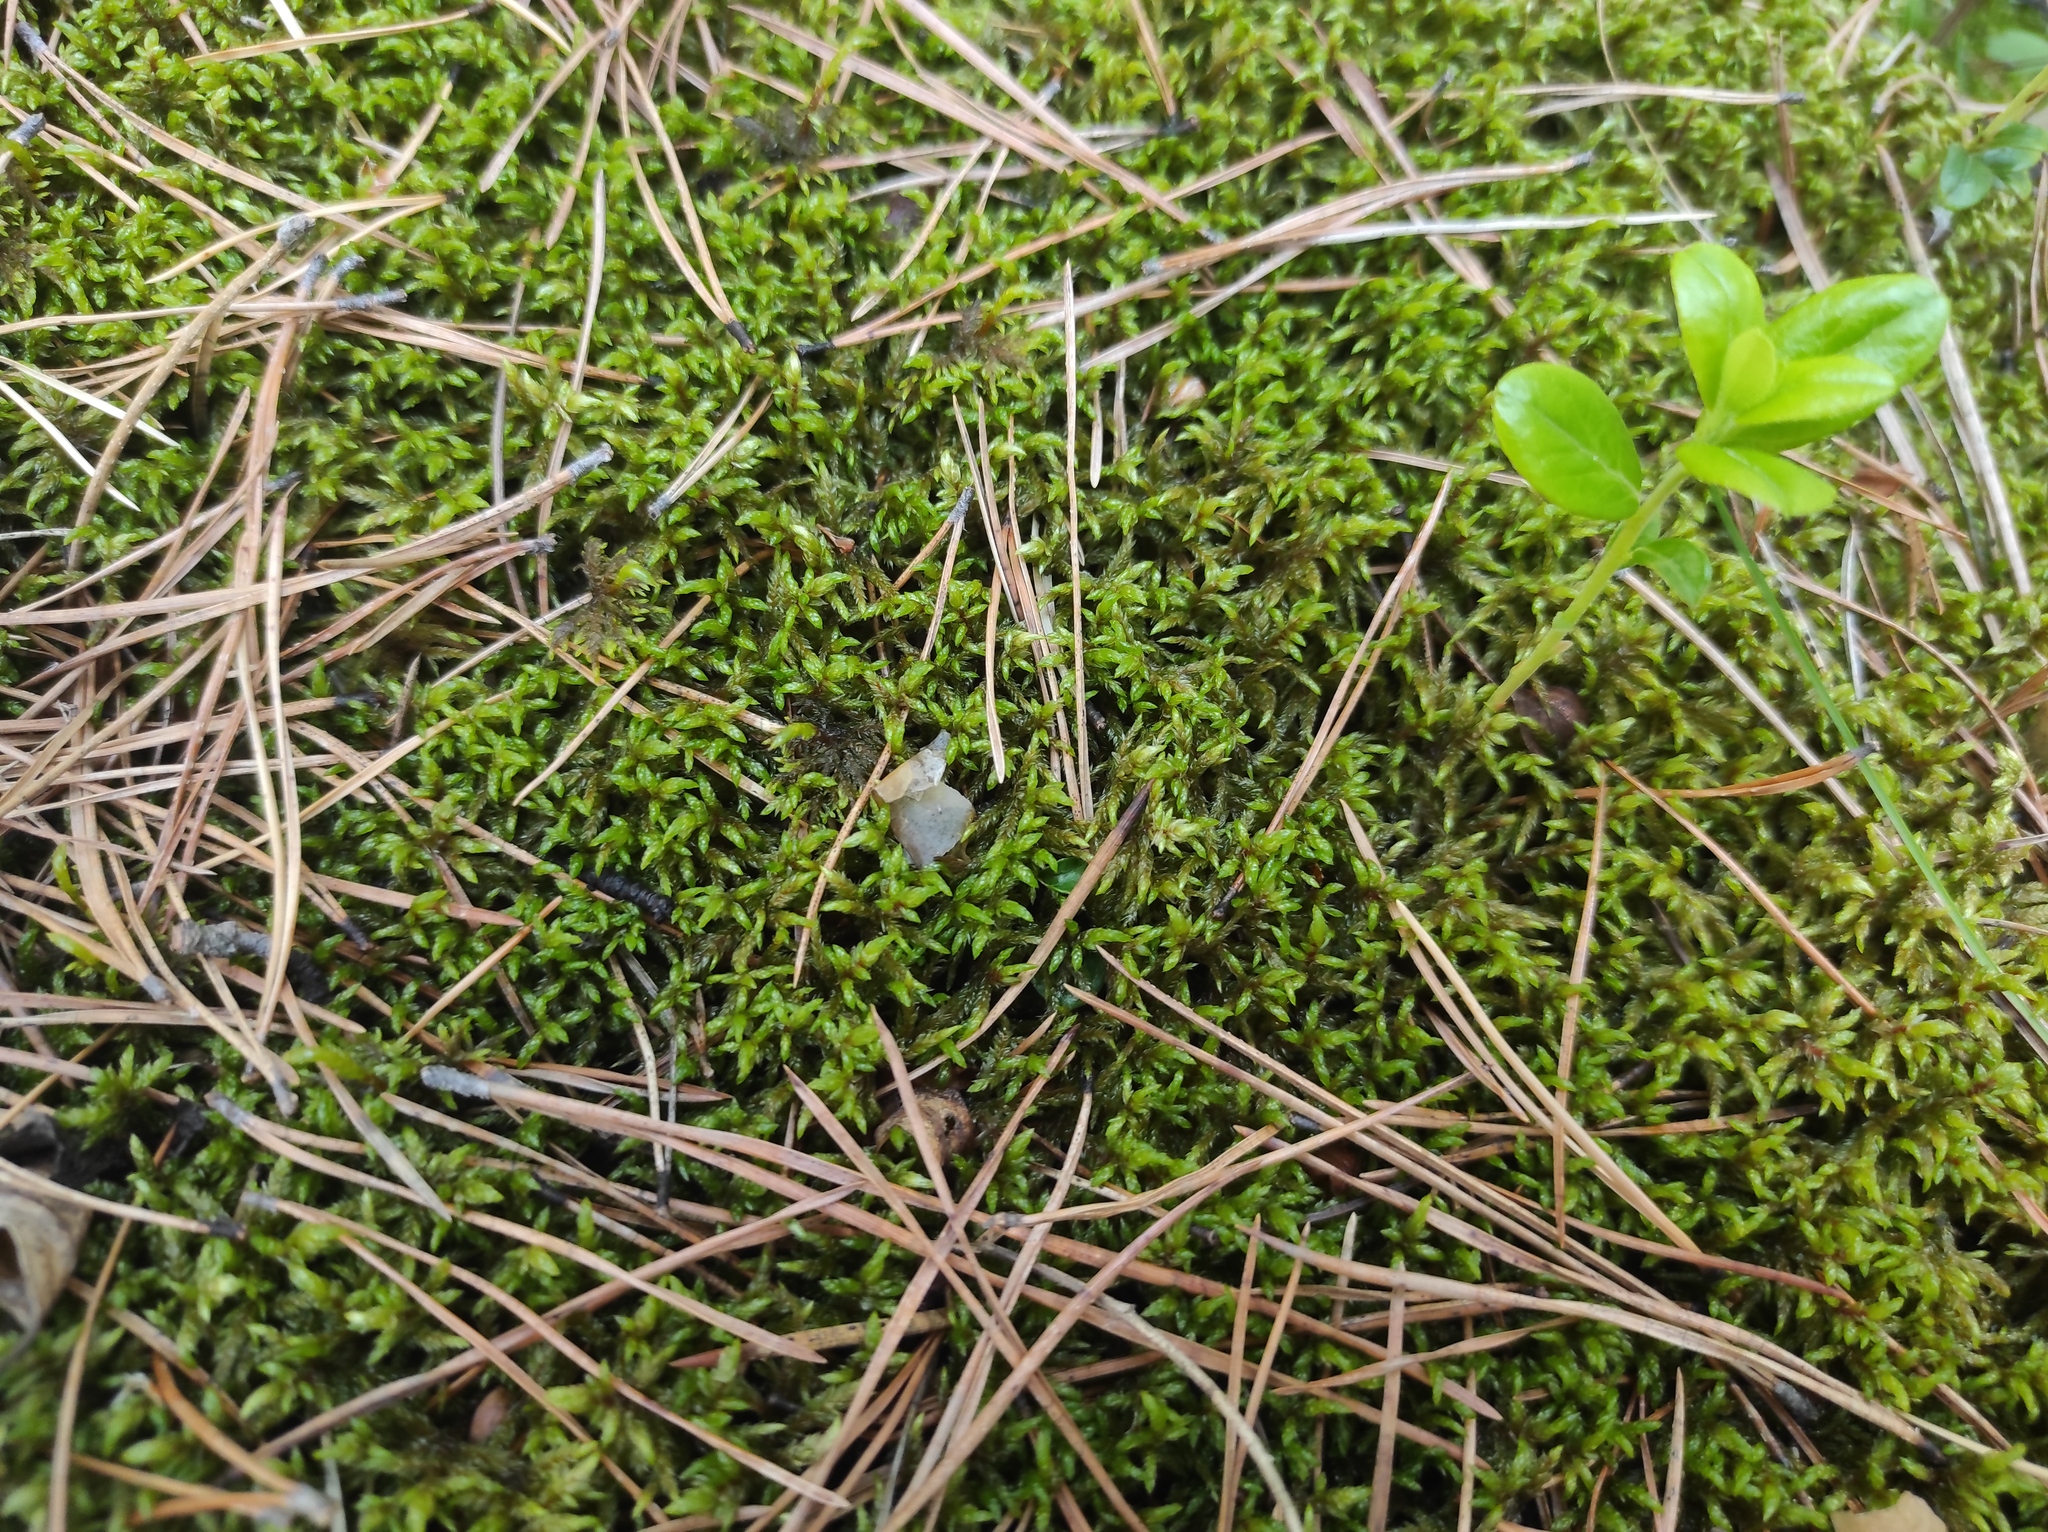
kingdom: Plantae
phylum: Tracheophyta
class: Magnoliopsida
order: Ericales
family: Ericaceae
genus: Vaccinium
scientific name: Vaccinium vitis-idaea
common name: Cowberry
